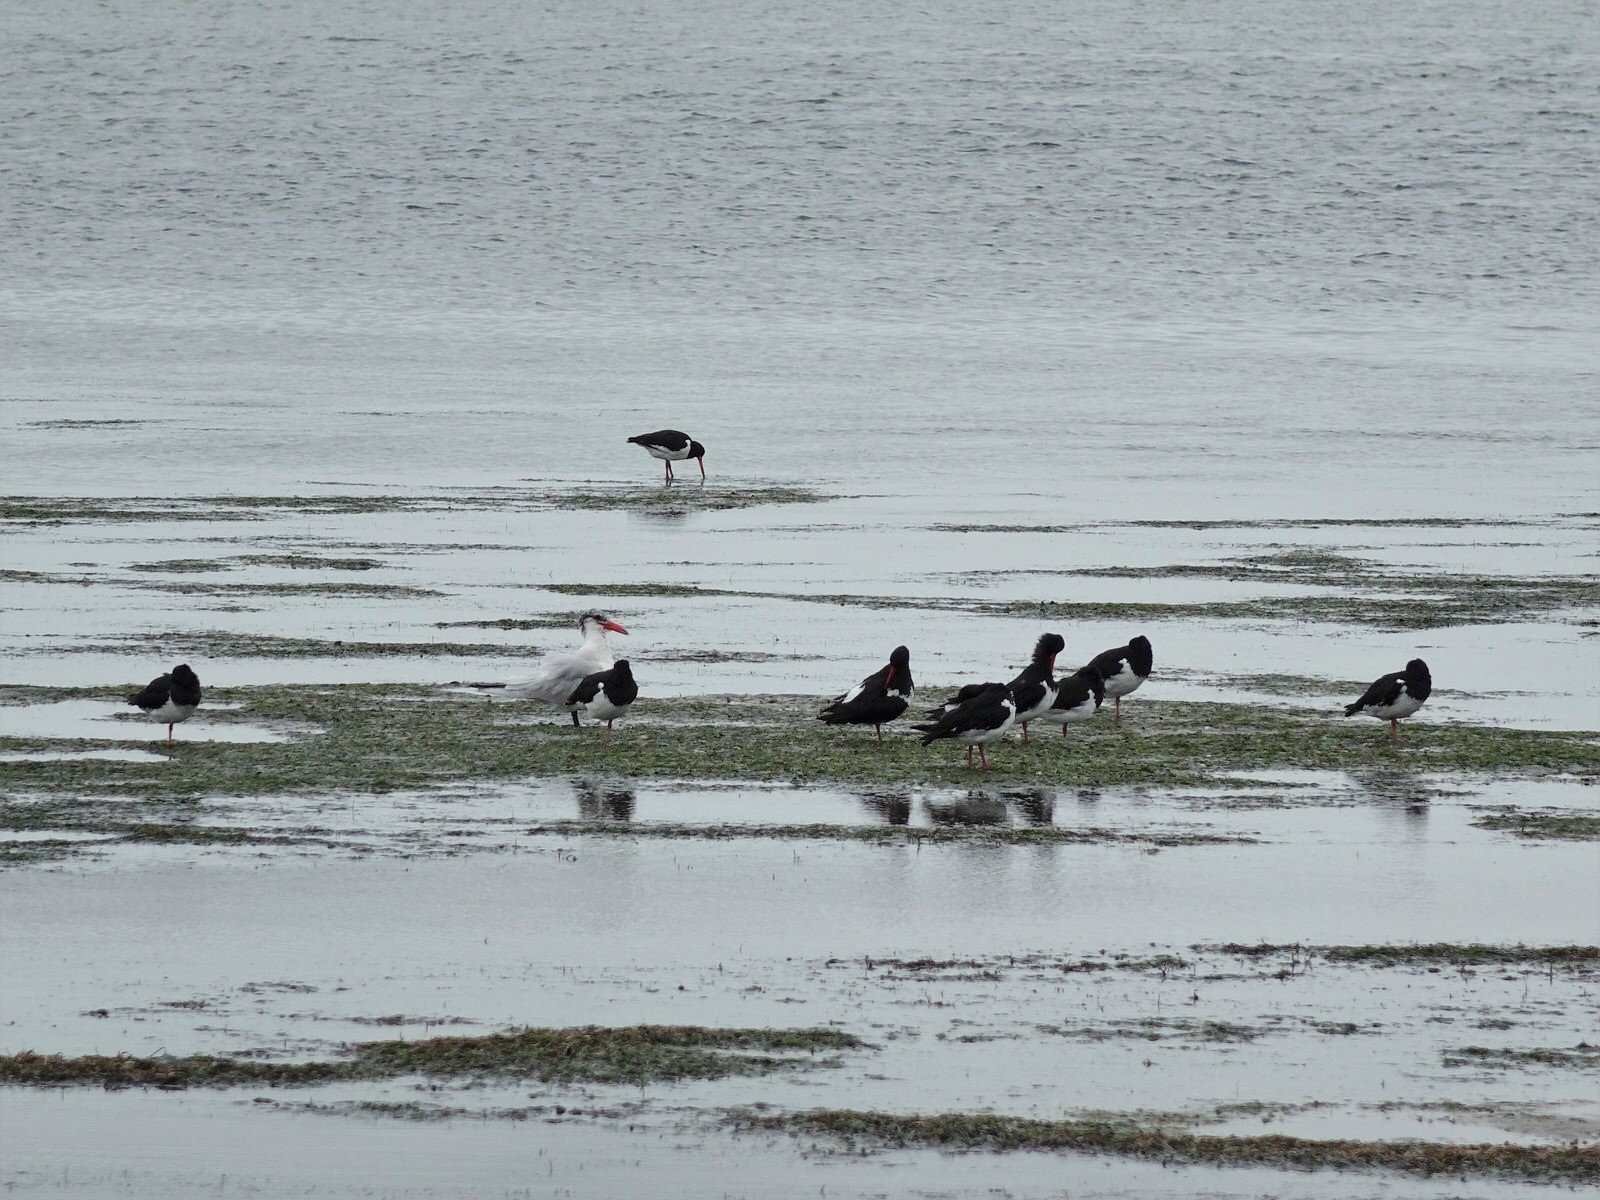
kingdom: Animalia
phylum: Chordata
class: Aves
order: Charadriiformes
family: Laridae
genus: Hydroprogne
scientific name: Hydroprogne caspia
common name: Caspian tern
